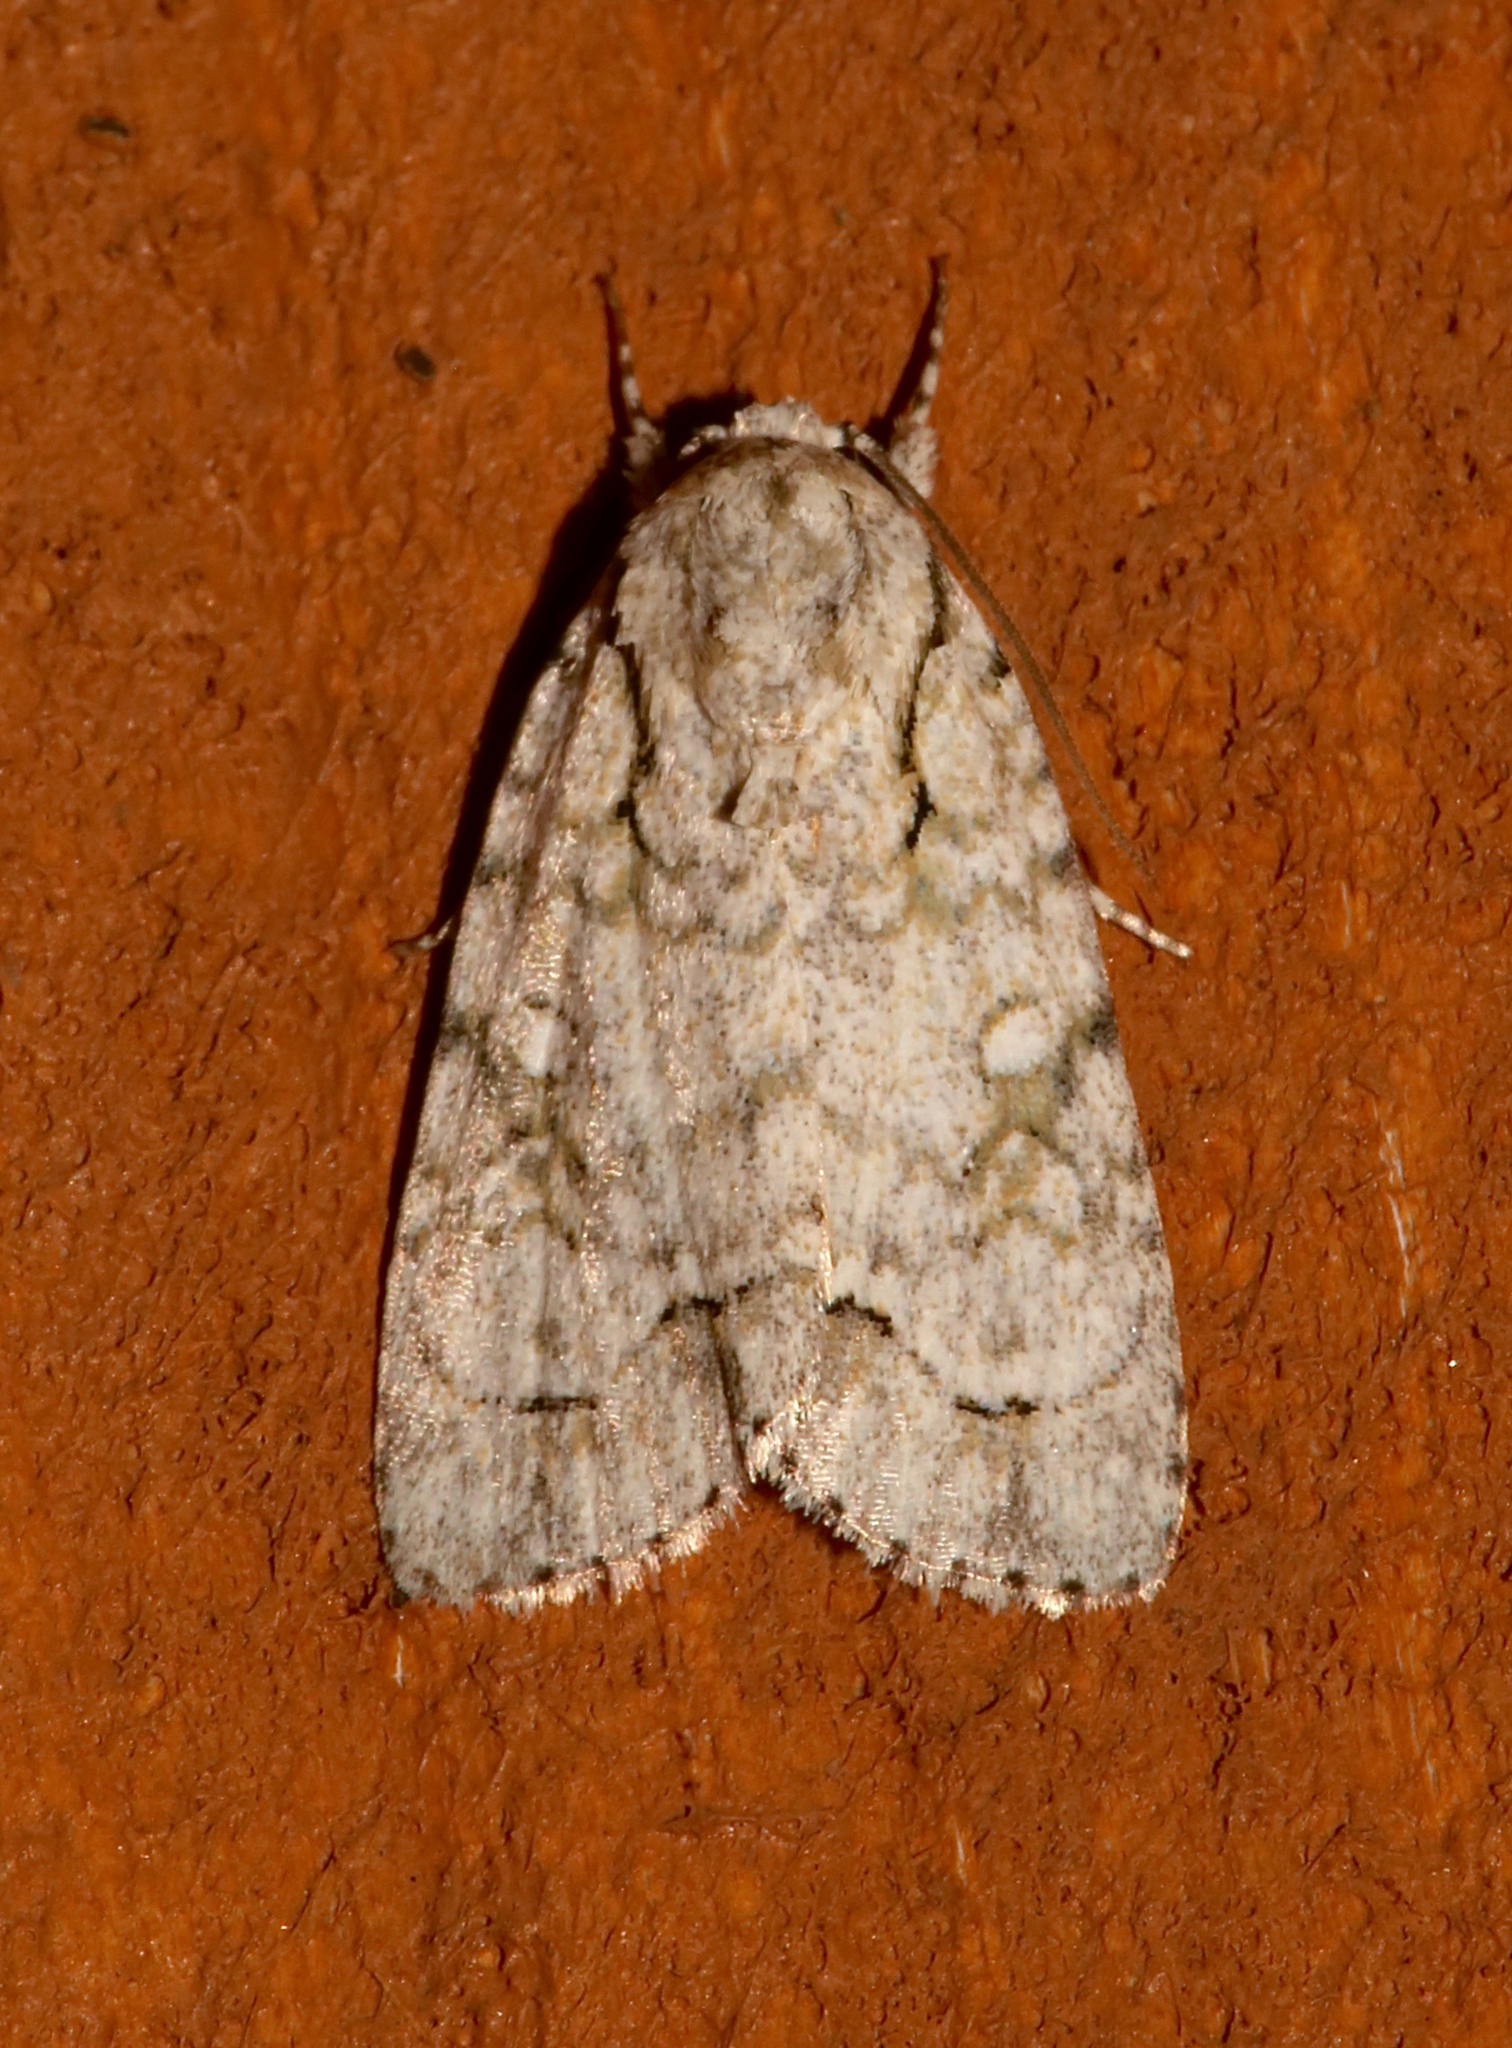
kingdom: Animalia
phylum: Arthropoda
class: Insecta
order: Lepidoptera
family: Noctuidae
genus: Acronicta
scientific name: Acronicta vinnula
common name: Delightful dagger
